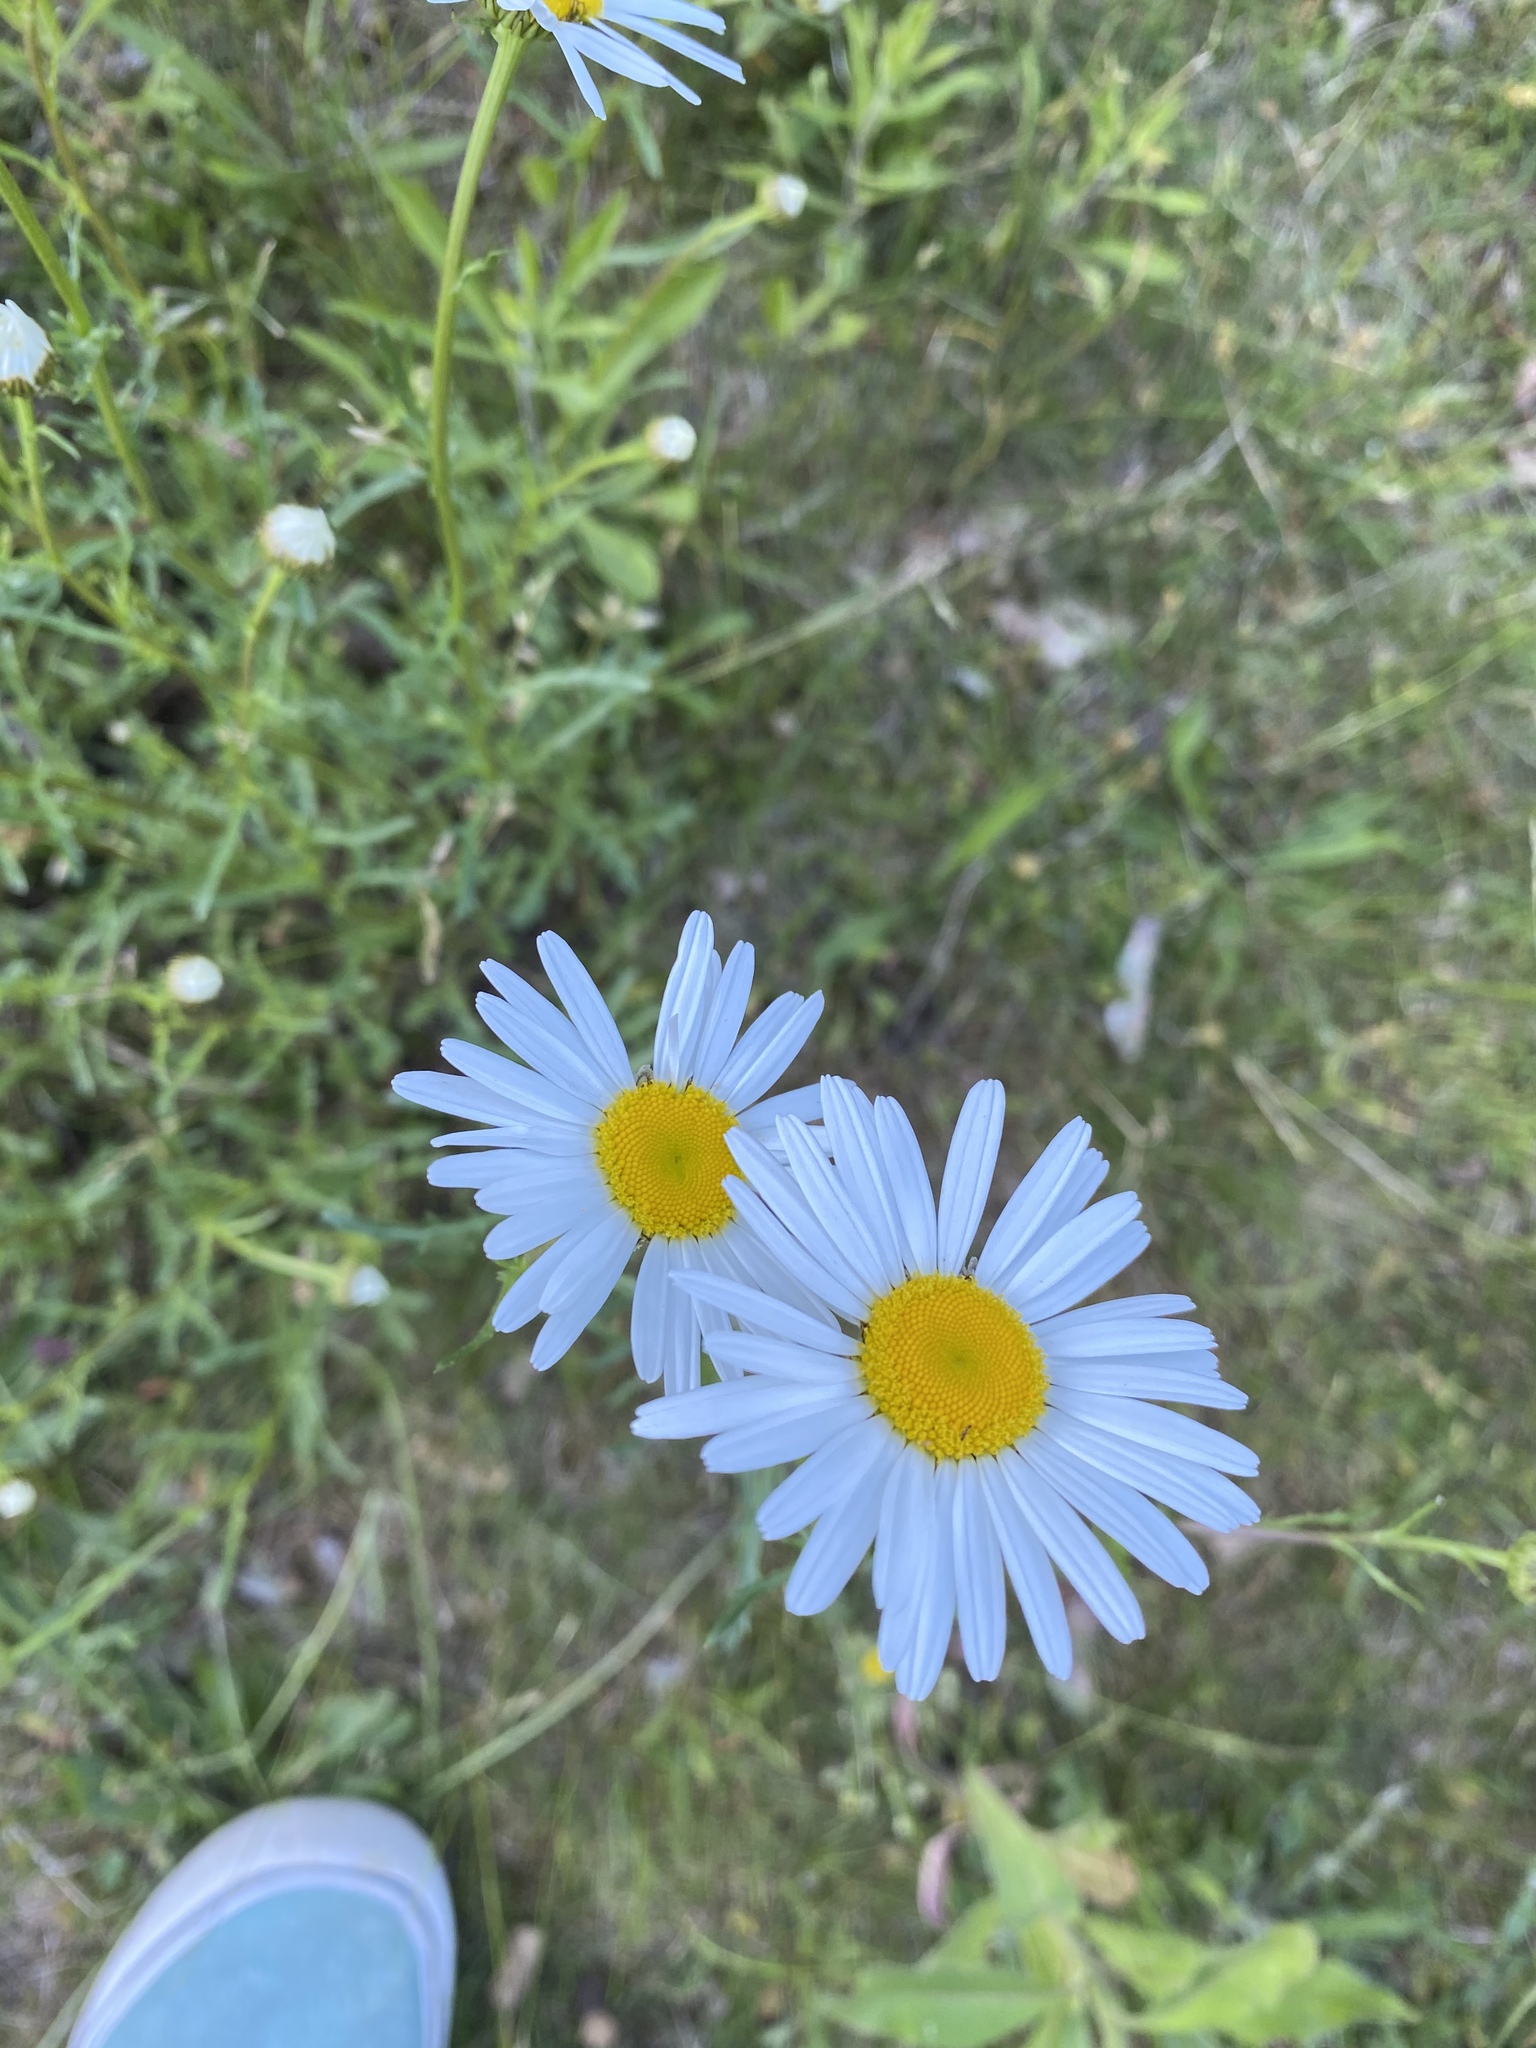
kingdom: Plantae
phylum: Tracheophyta
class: Magnoliopsida
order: Asterales
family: Asteraceae
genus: Leucanthemum
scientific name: Leucanthemum vulgare
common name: Oxeye daisy
